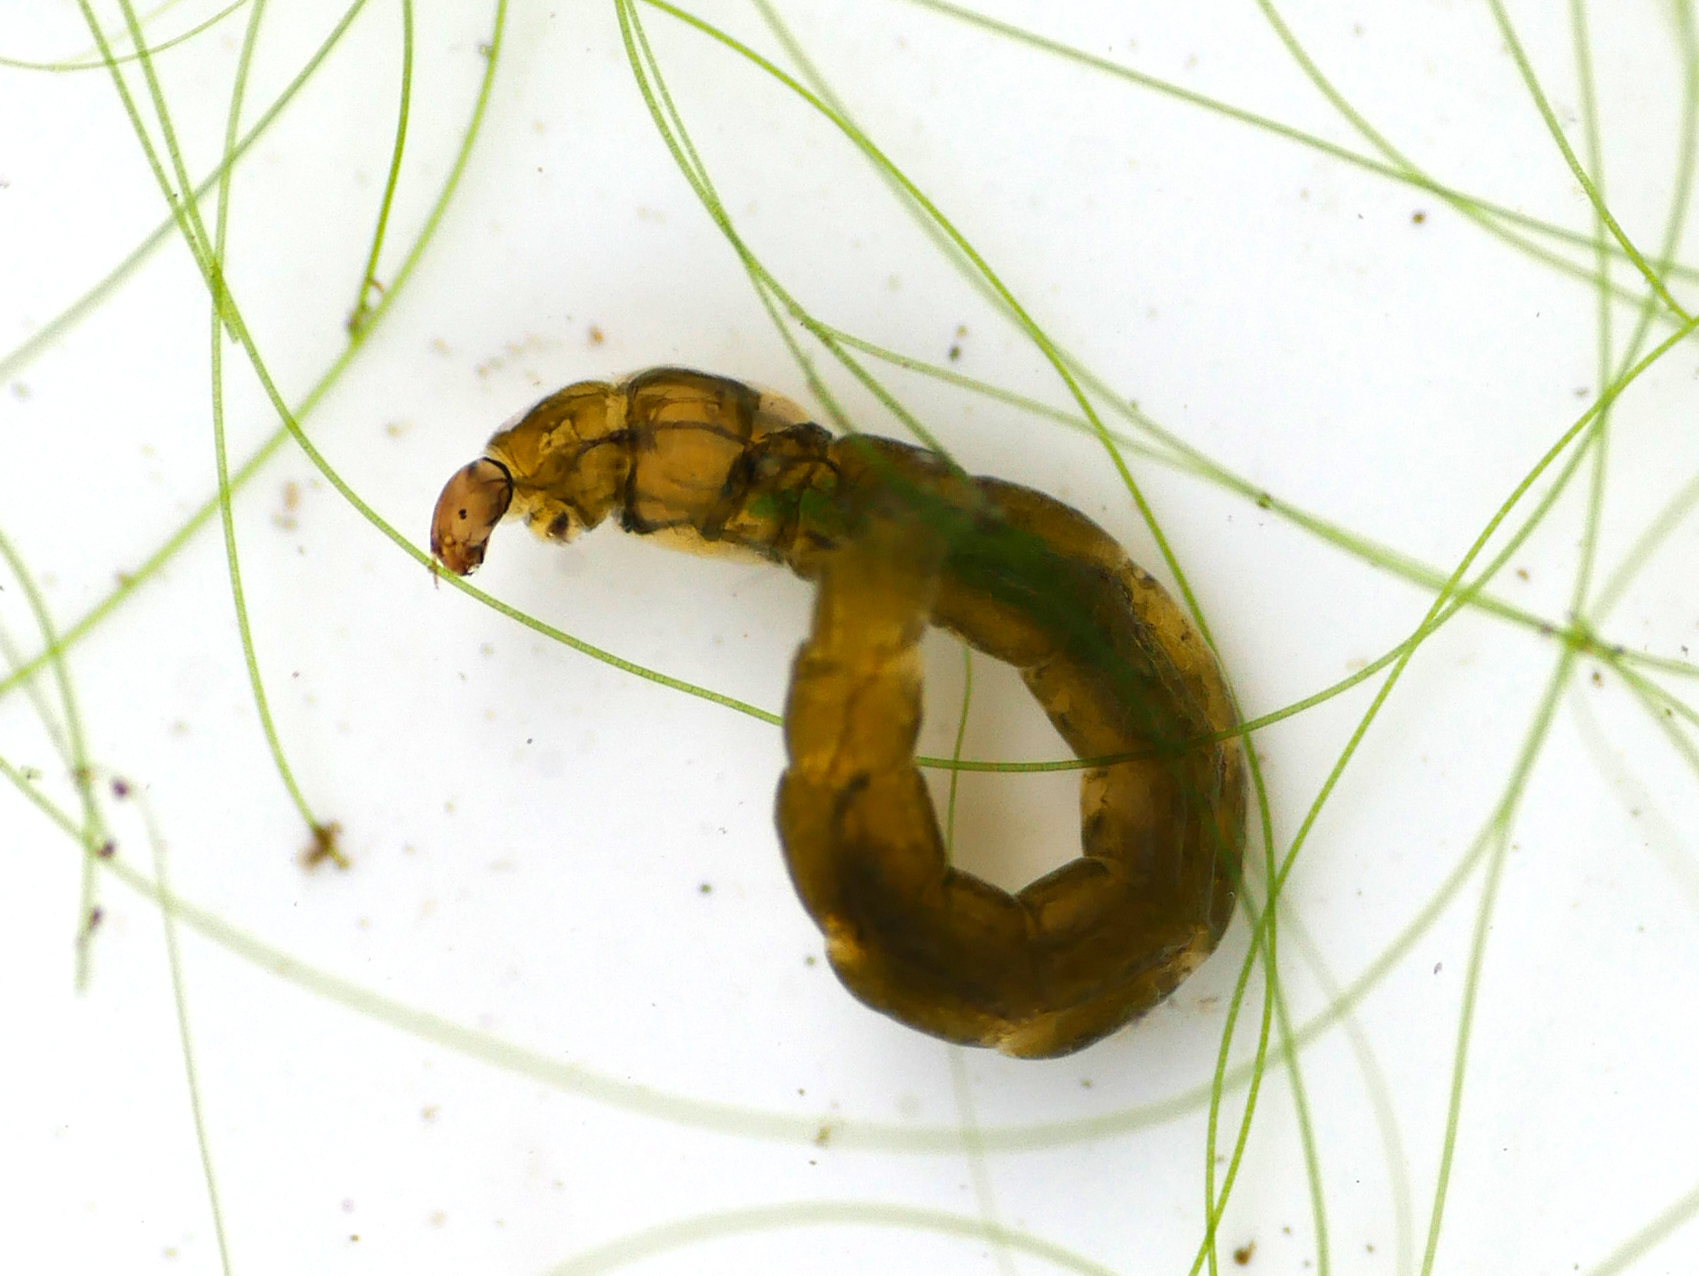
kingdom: Animalia
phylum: Arthropoda
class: Insecta
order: Diptera
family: Chironomidae
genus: Psectrocladius
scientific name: Psectrocladius obvius
